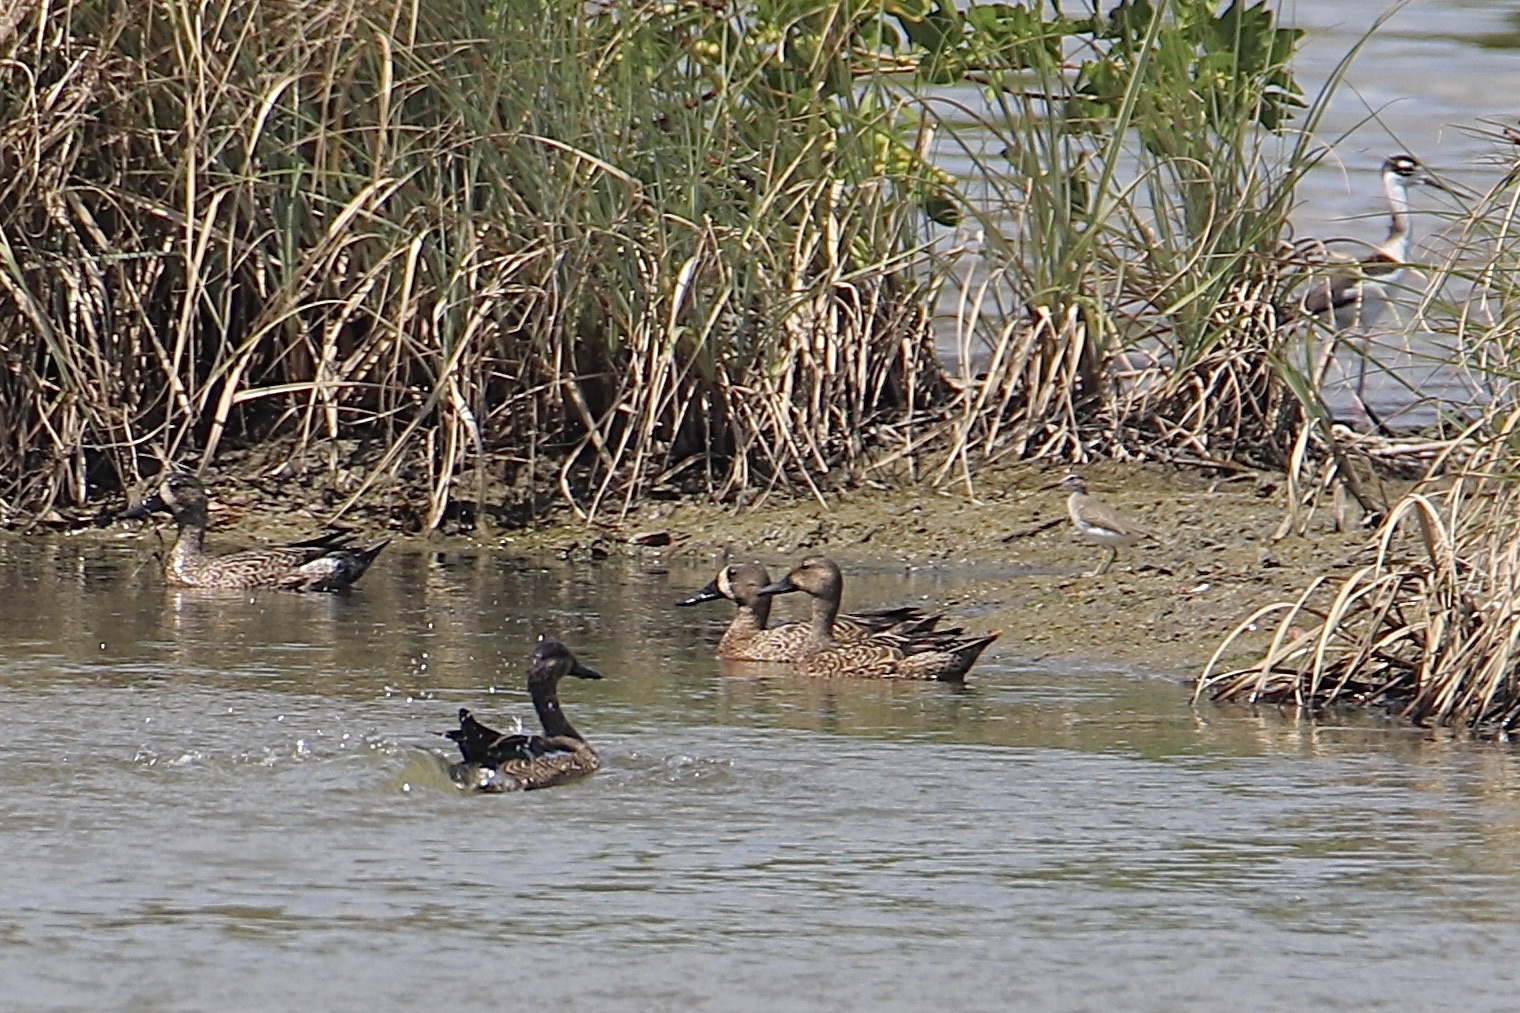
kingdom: Animalia
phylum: Chordata
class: Aves
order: Anseriformes
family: Anatidae
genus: Spatula
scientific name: Spatula discors
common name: Blue-winged teal
